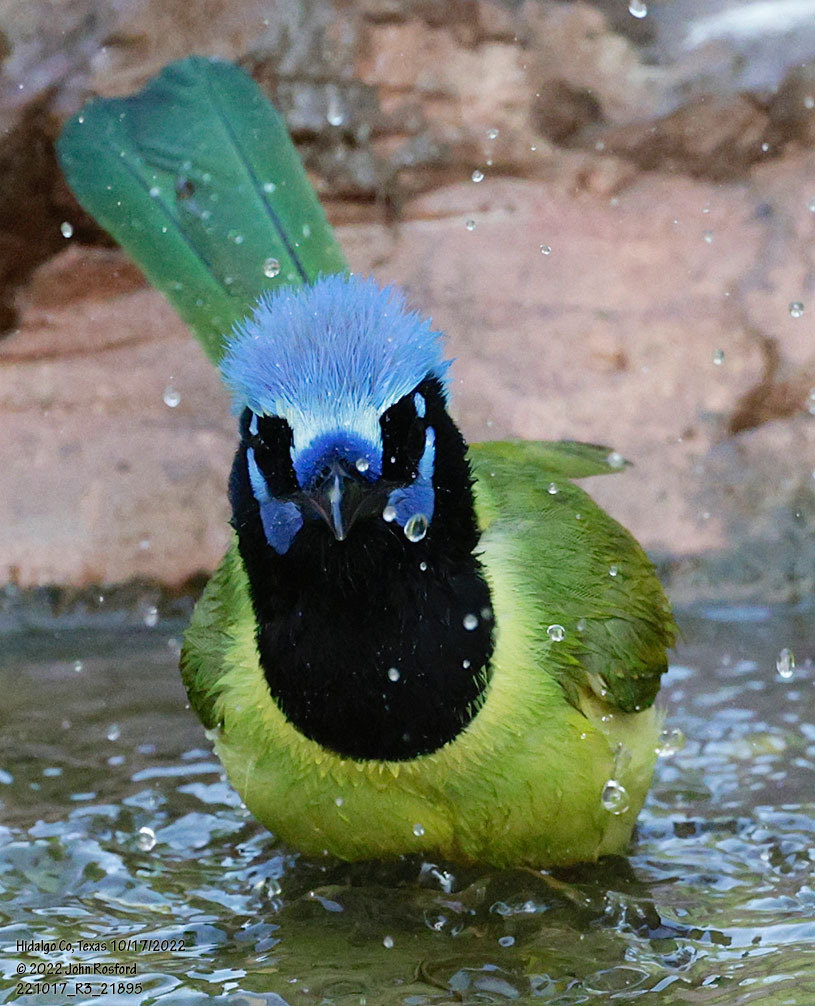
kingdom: Animalia
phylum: Chordata
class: Aves
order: Passeriformes
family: Corvidae
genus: Cyanocorax
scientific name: Cyanocorax yncas
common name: Green jay
